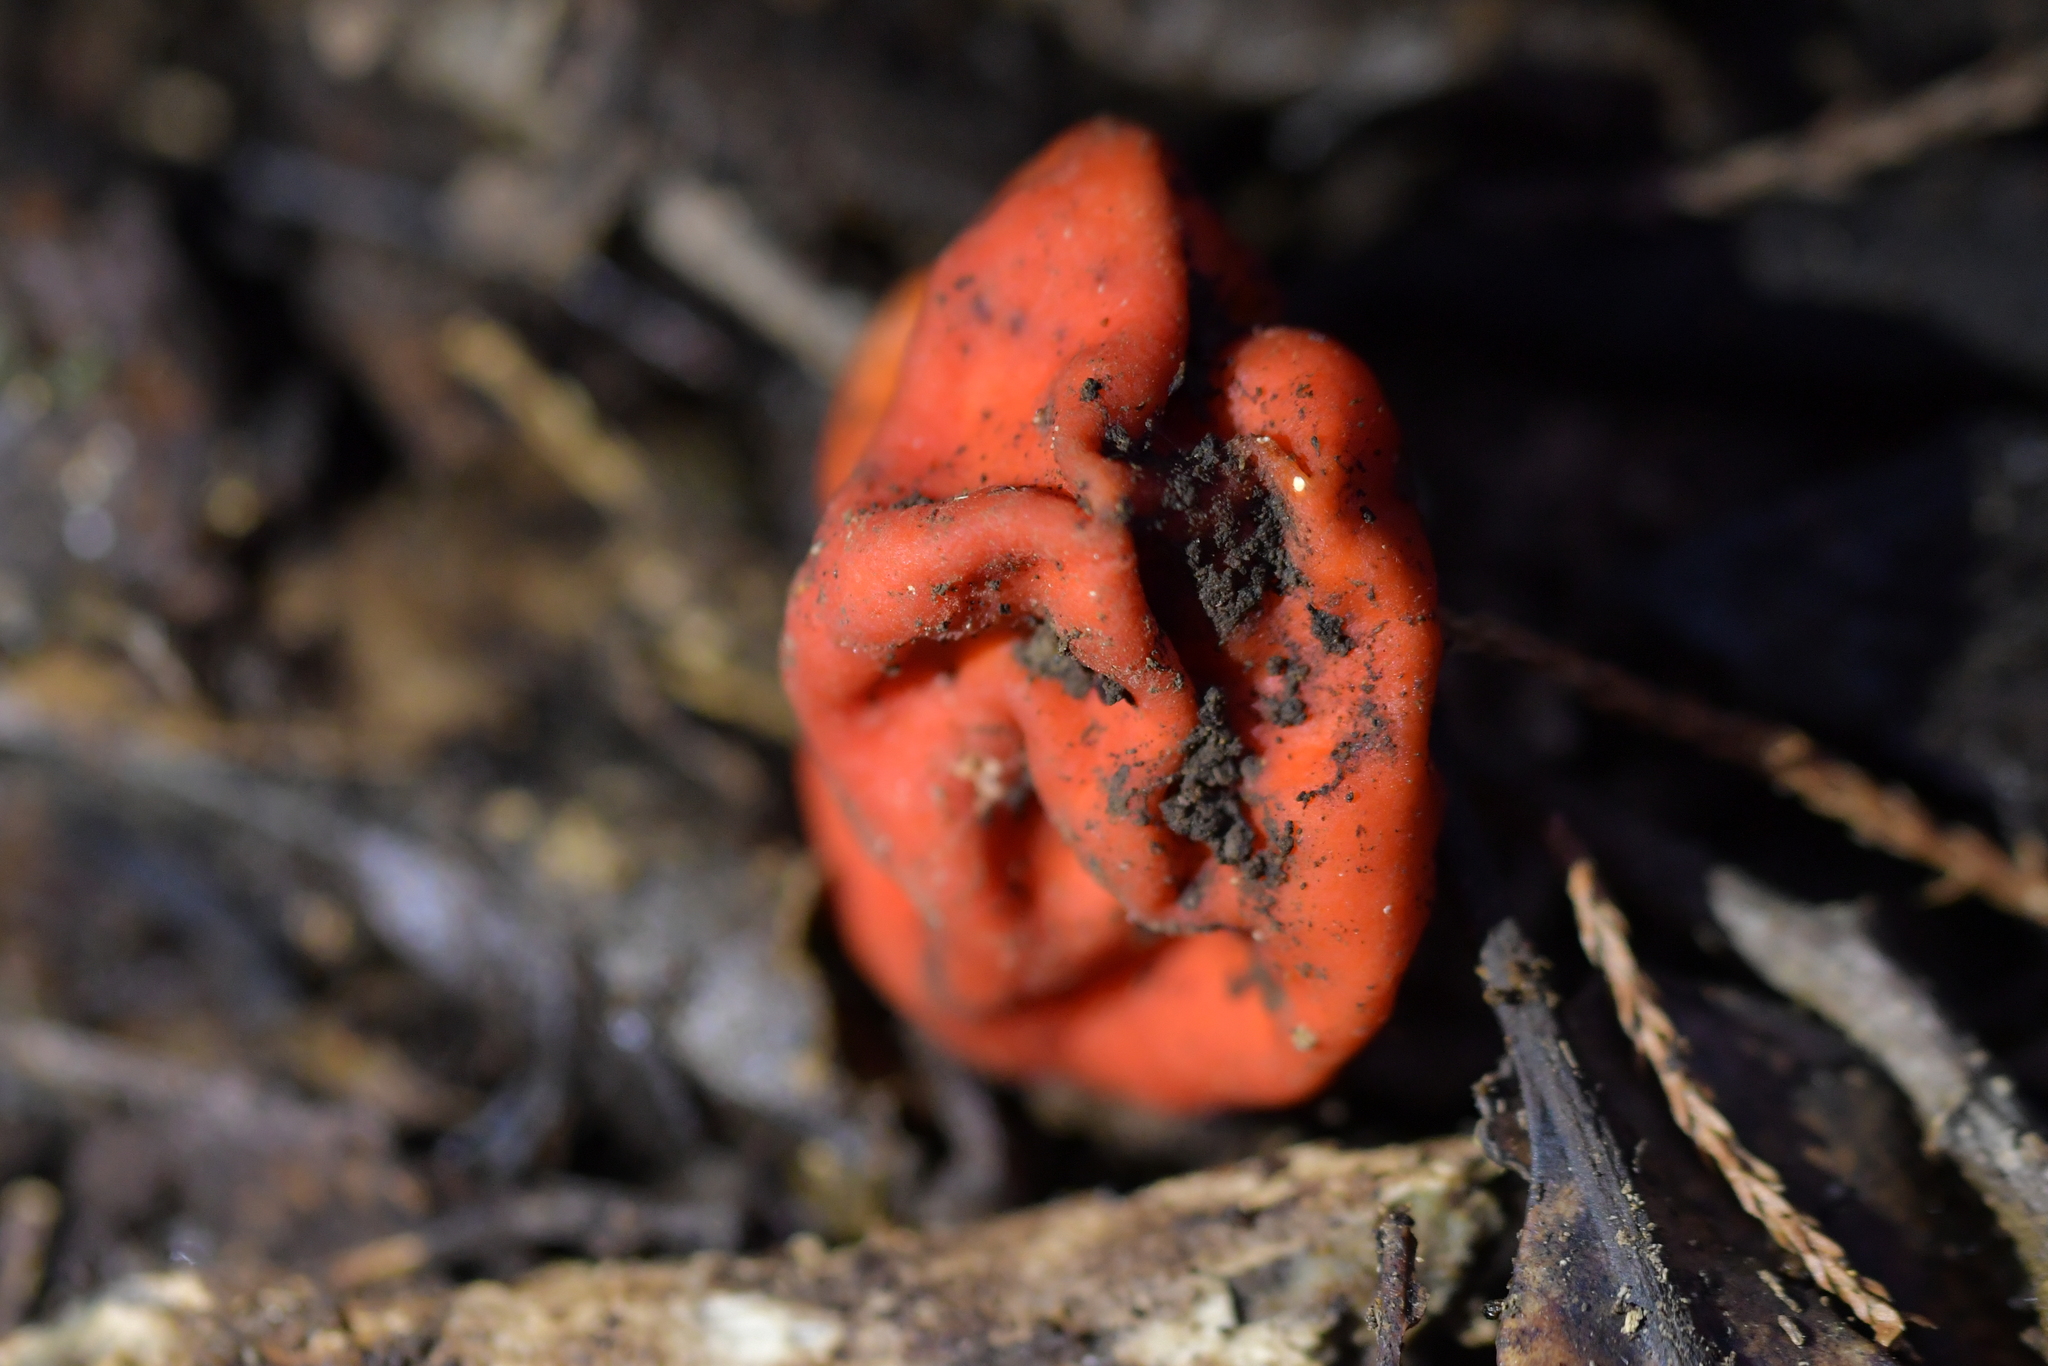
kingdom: Fungi
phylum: Ascomycota
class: Pezizomycetes
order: Pezizales
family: Pyronemataceae
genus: Paurocotylis
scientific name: Paurocotylis pila
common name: Scarlet berry truffle
